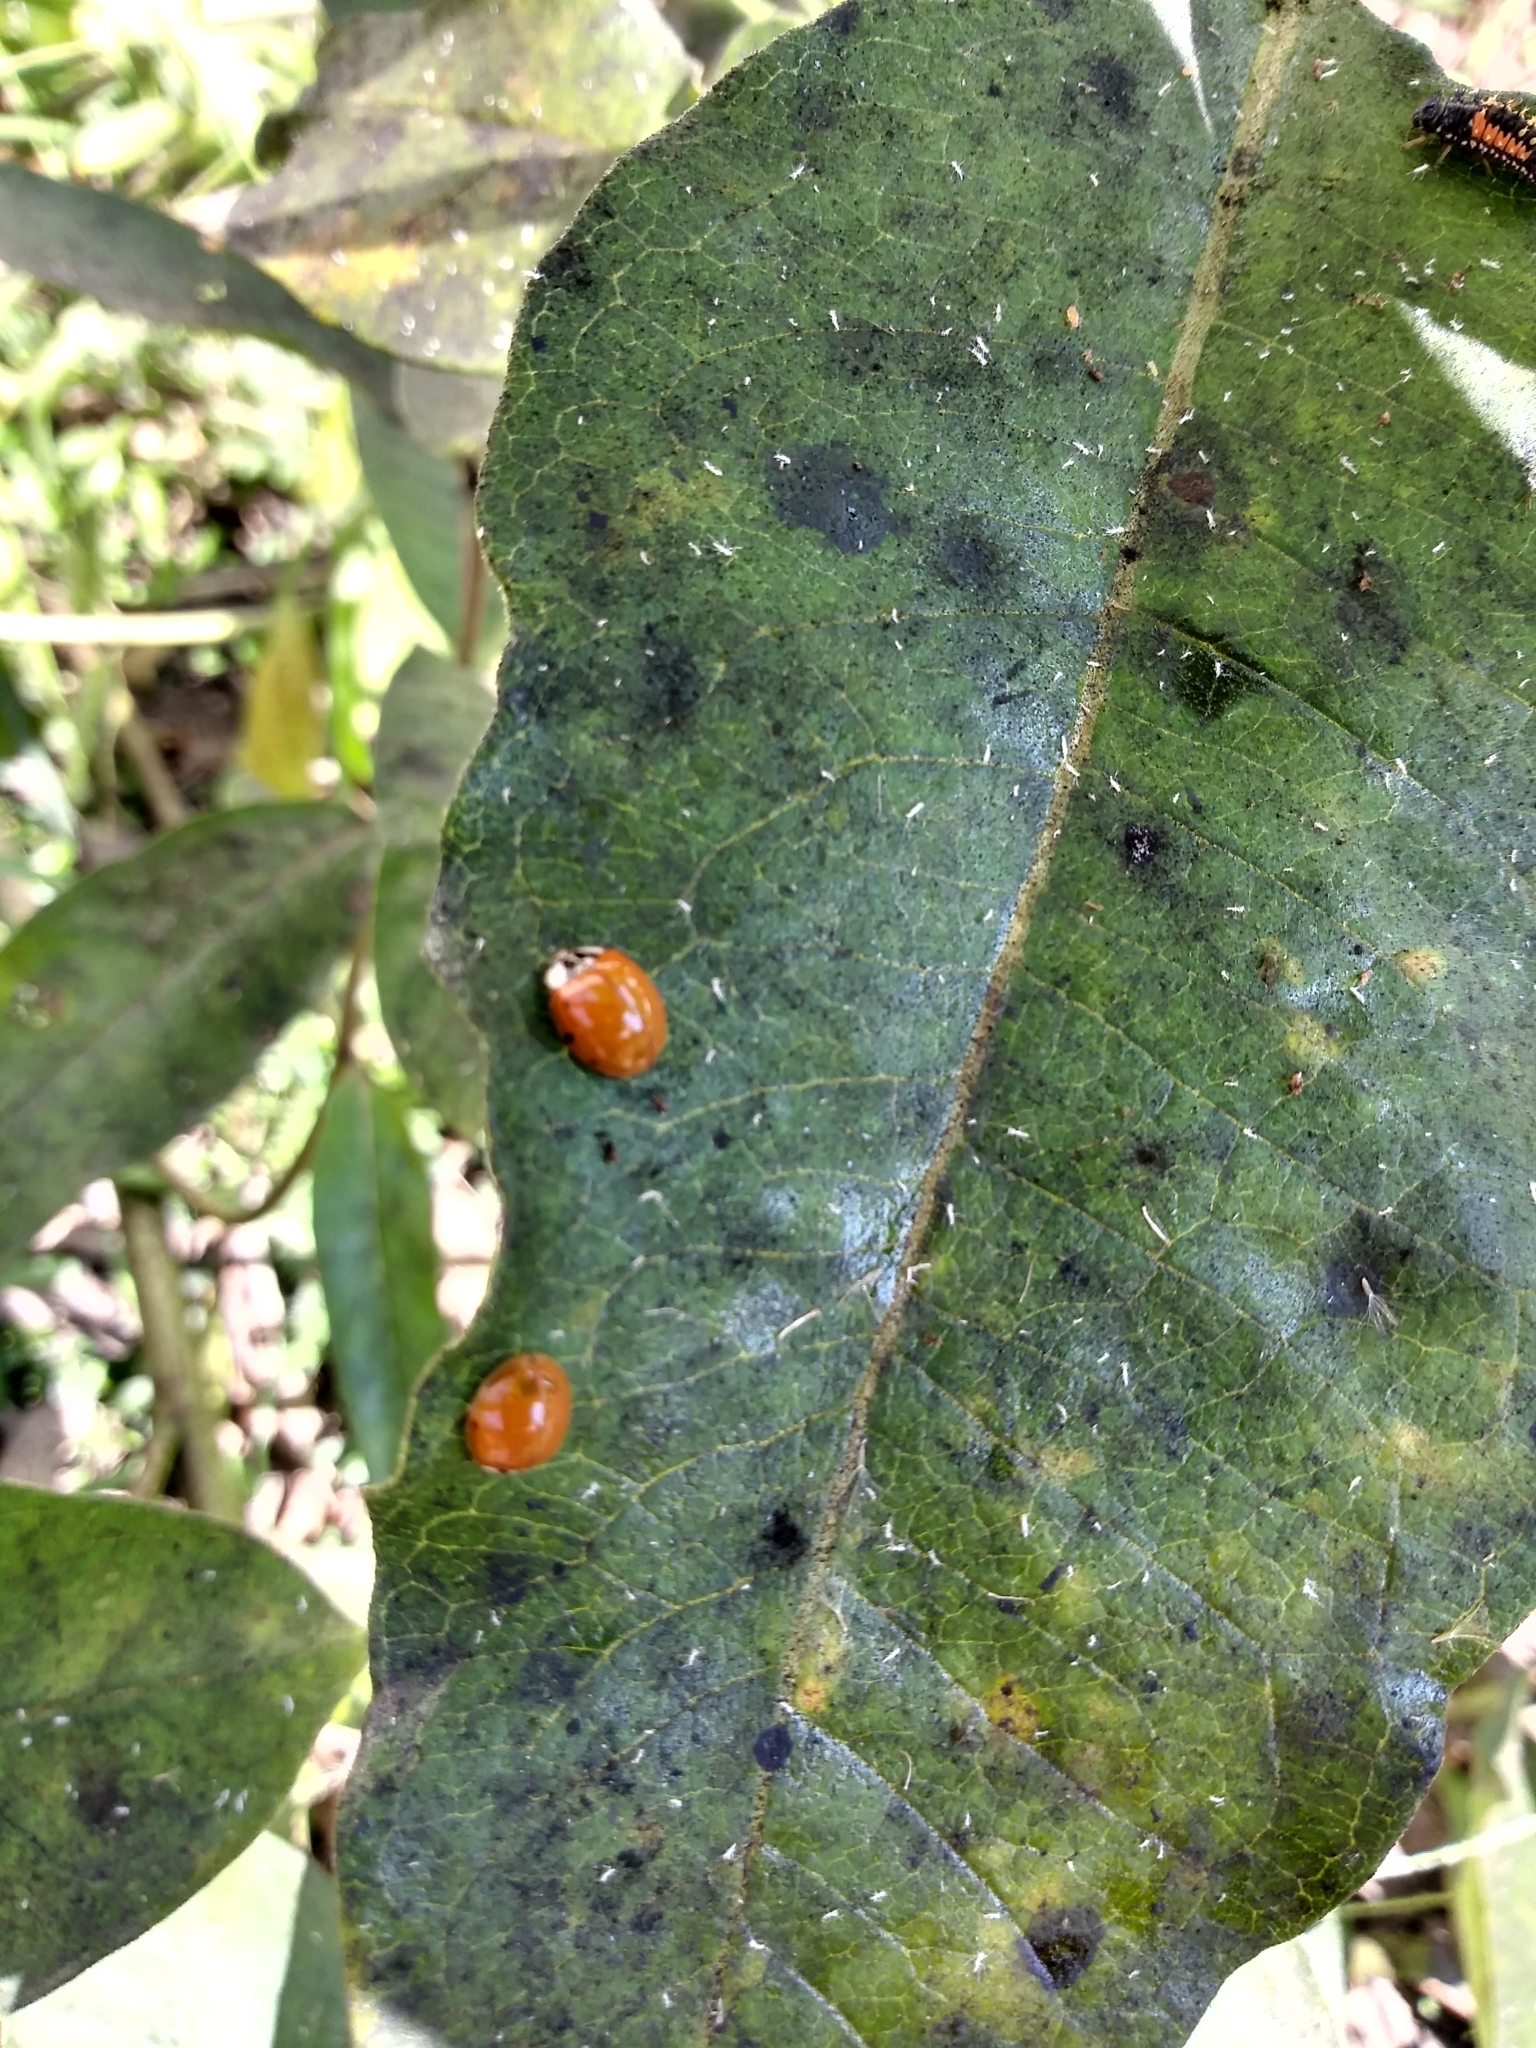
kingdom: Animalia
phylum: Arthropoda
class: Insecta
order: Coleoptera
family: Coccinellidae
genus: Harmonia
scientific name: Harmonia axyridis
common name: Harlequin ladybird
